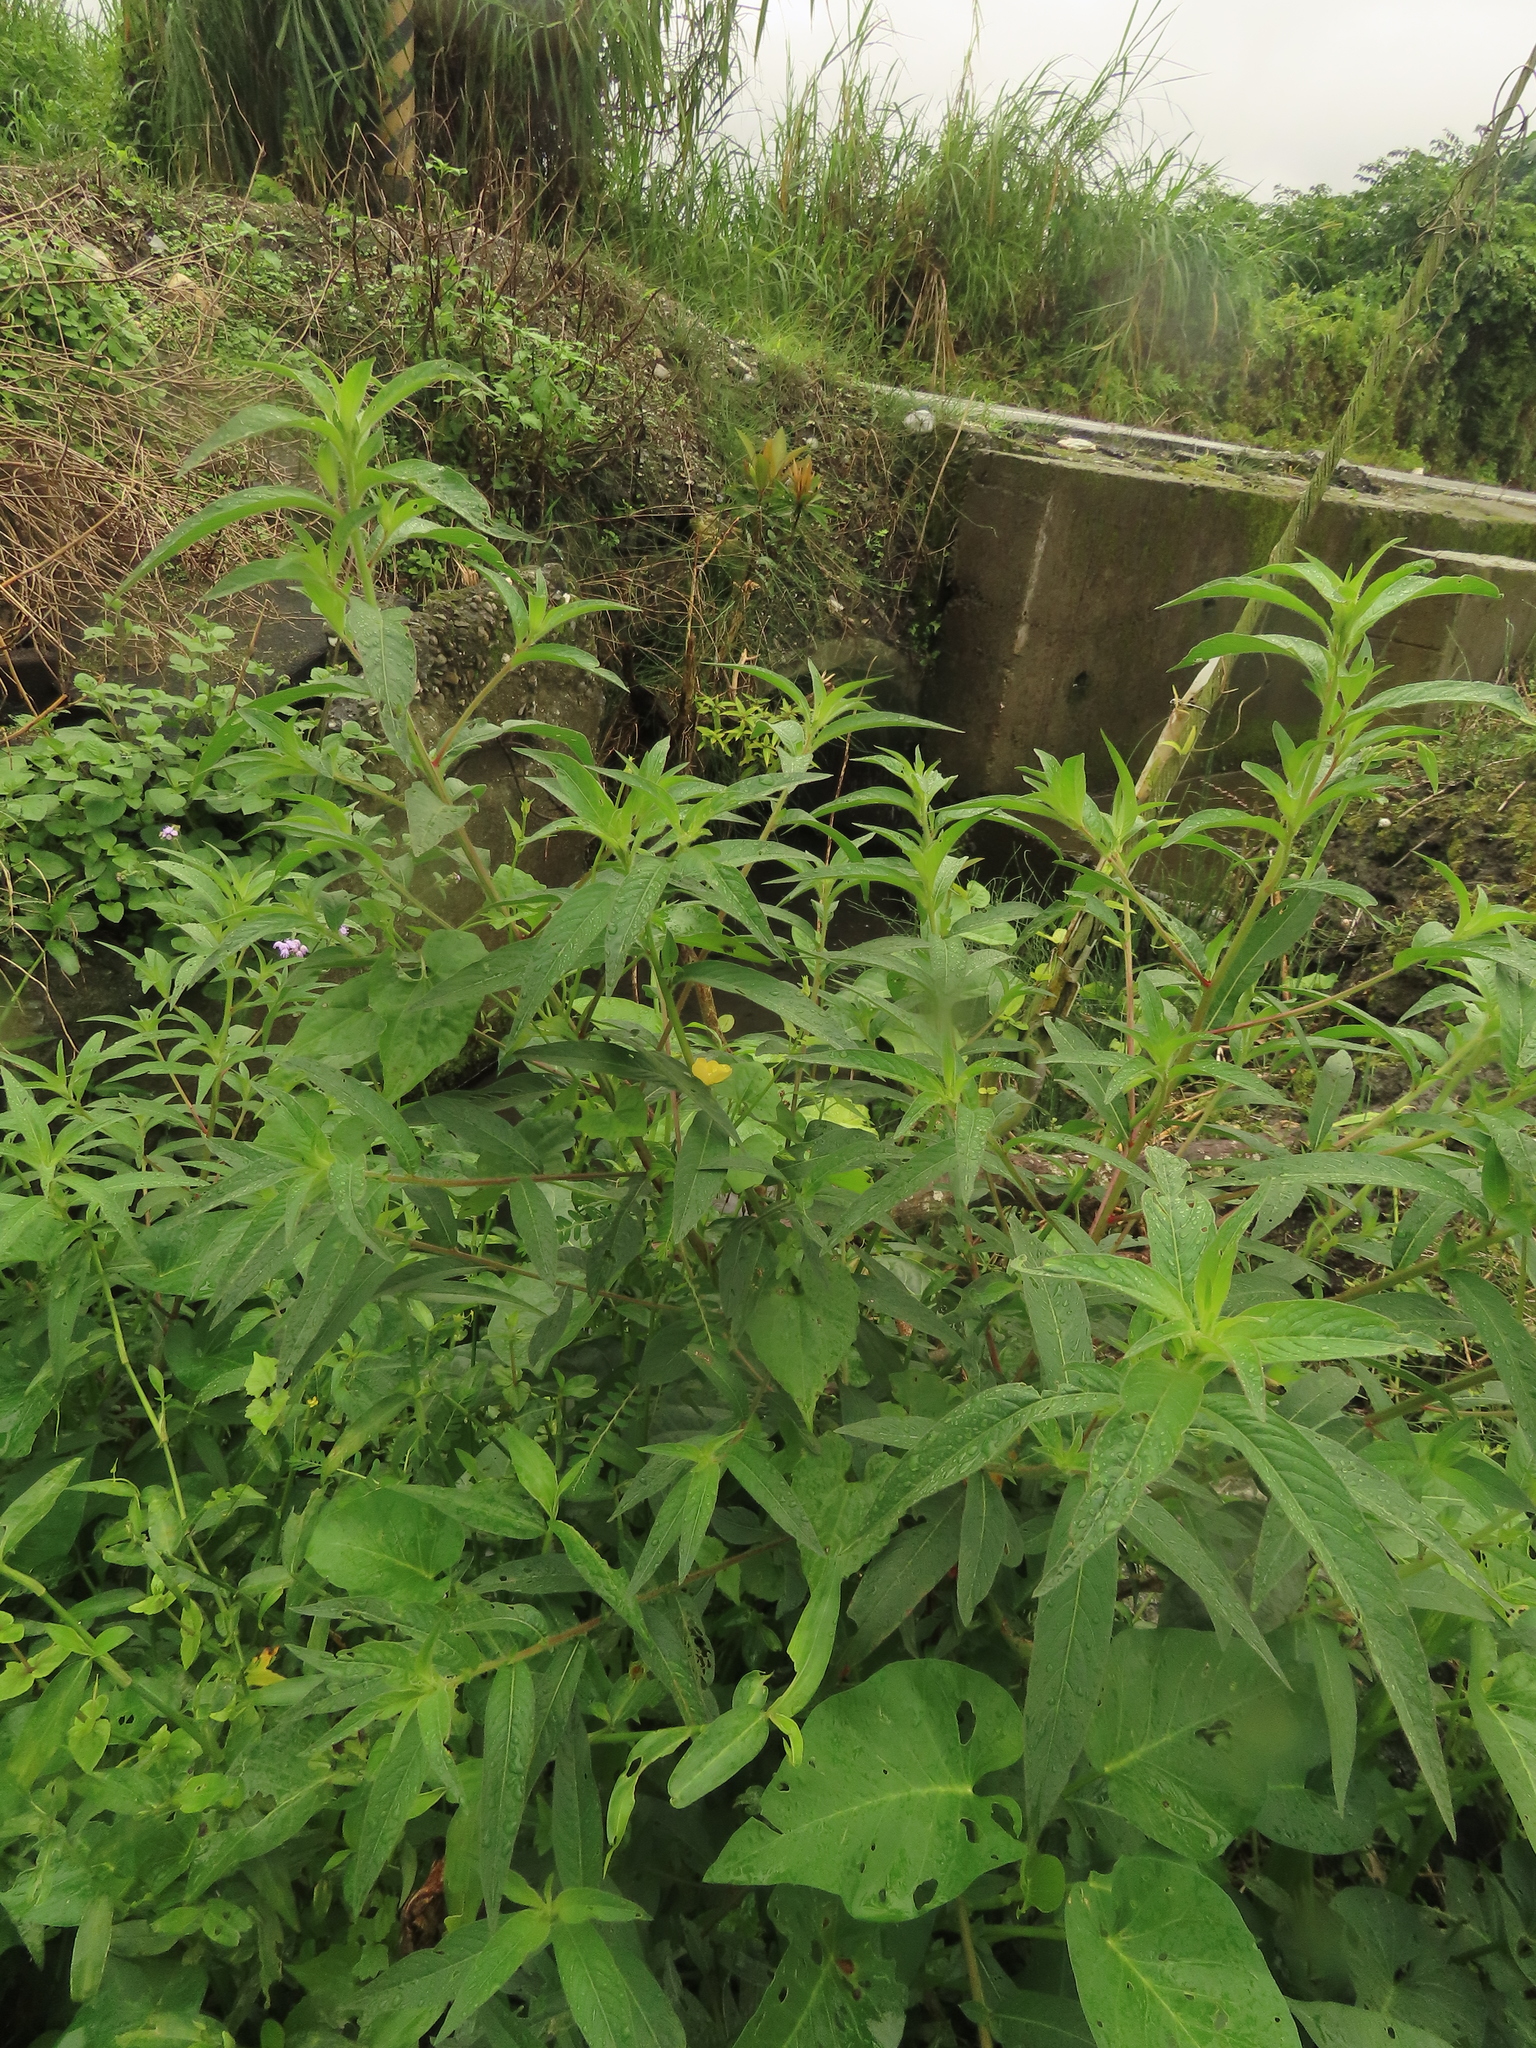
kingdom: Plantae
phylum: Tracheophyta
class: Magnoliopsida
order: Myrtales
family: Onagraceae
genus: Ludwigia
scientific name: Ludwigia octovalvis
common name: Water-primrose
